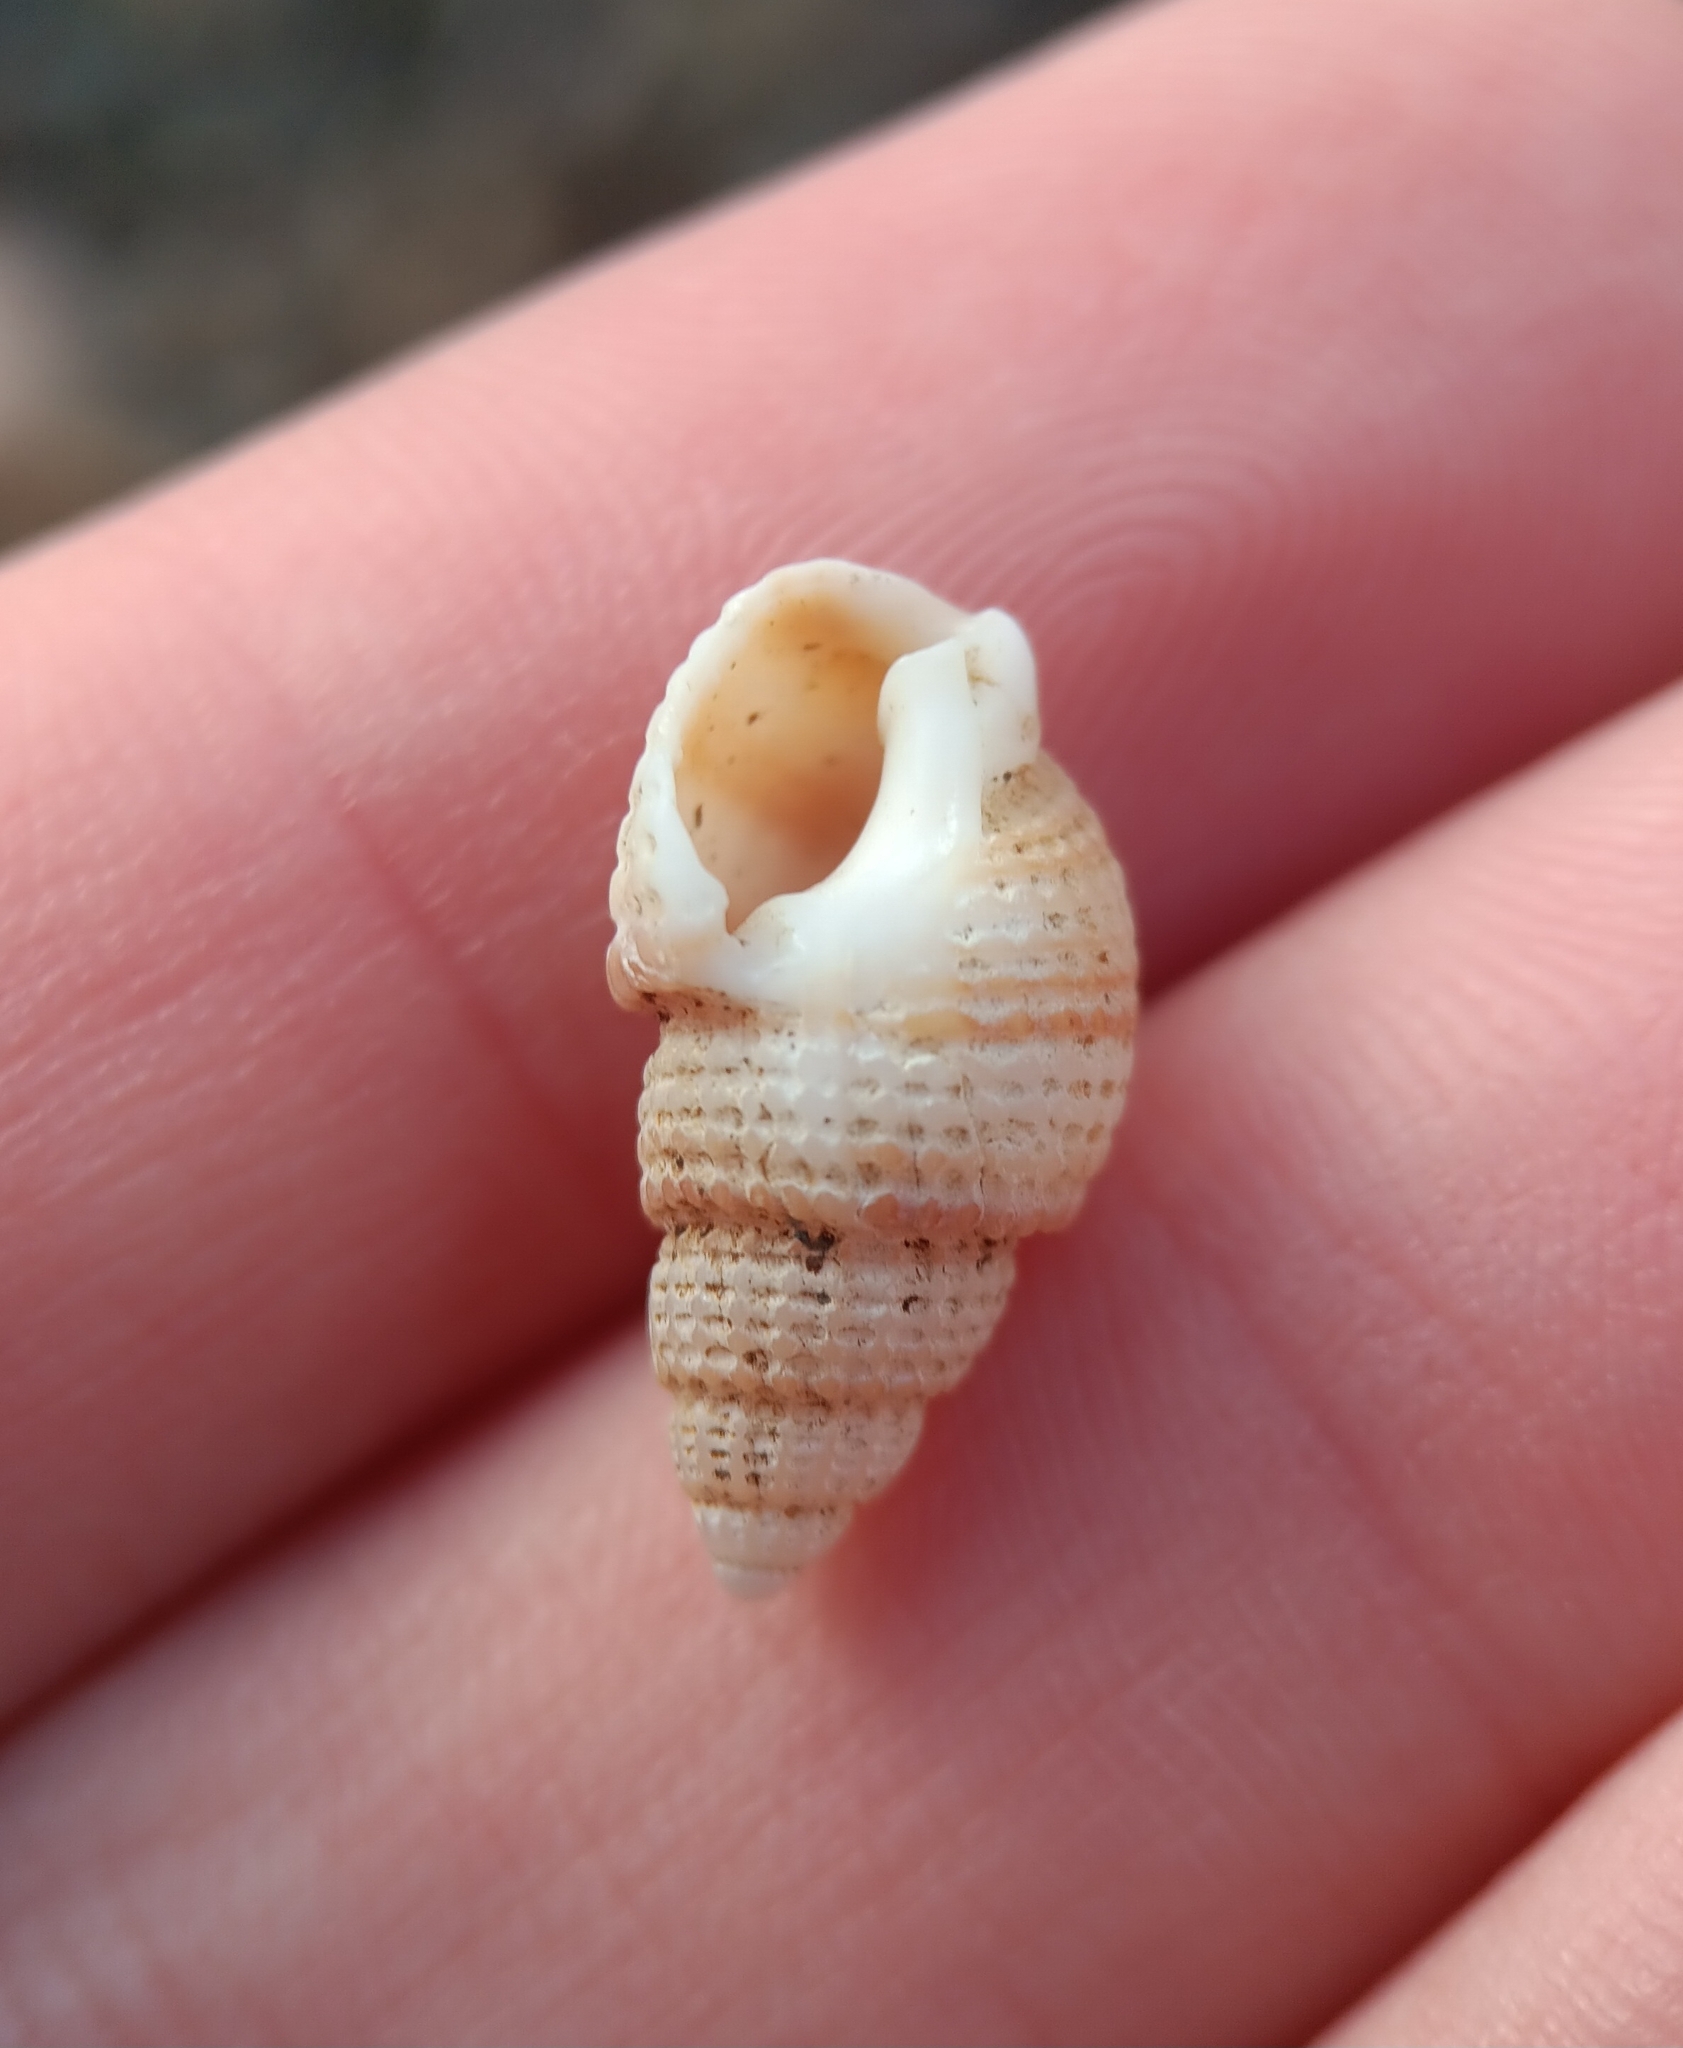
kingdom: Animalia
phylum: Mollusca
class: Gastropoda
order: Neogastropoda
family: Nassariidae
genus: Ilyanassa
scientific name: Ilyanassa trivittata
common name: Three-line mudsnail
